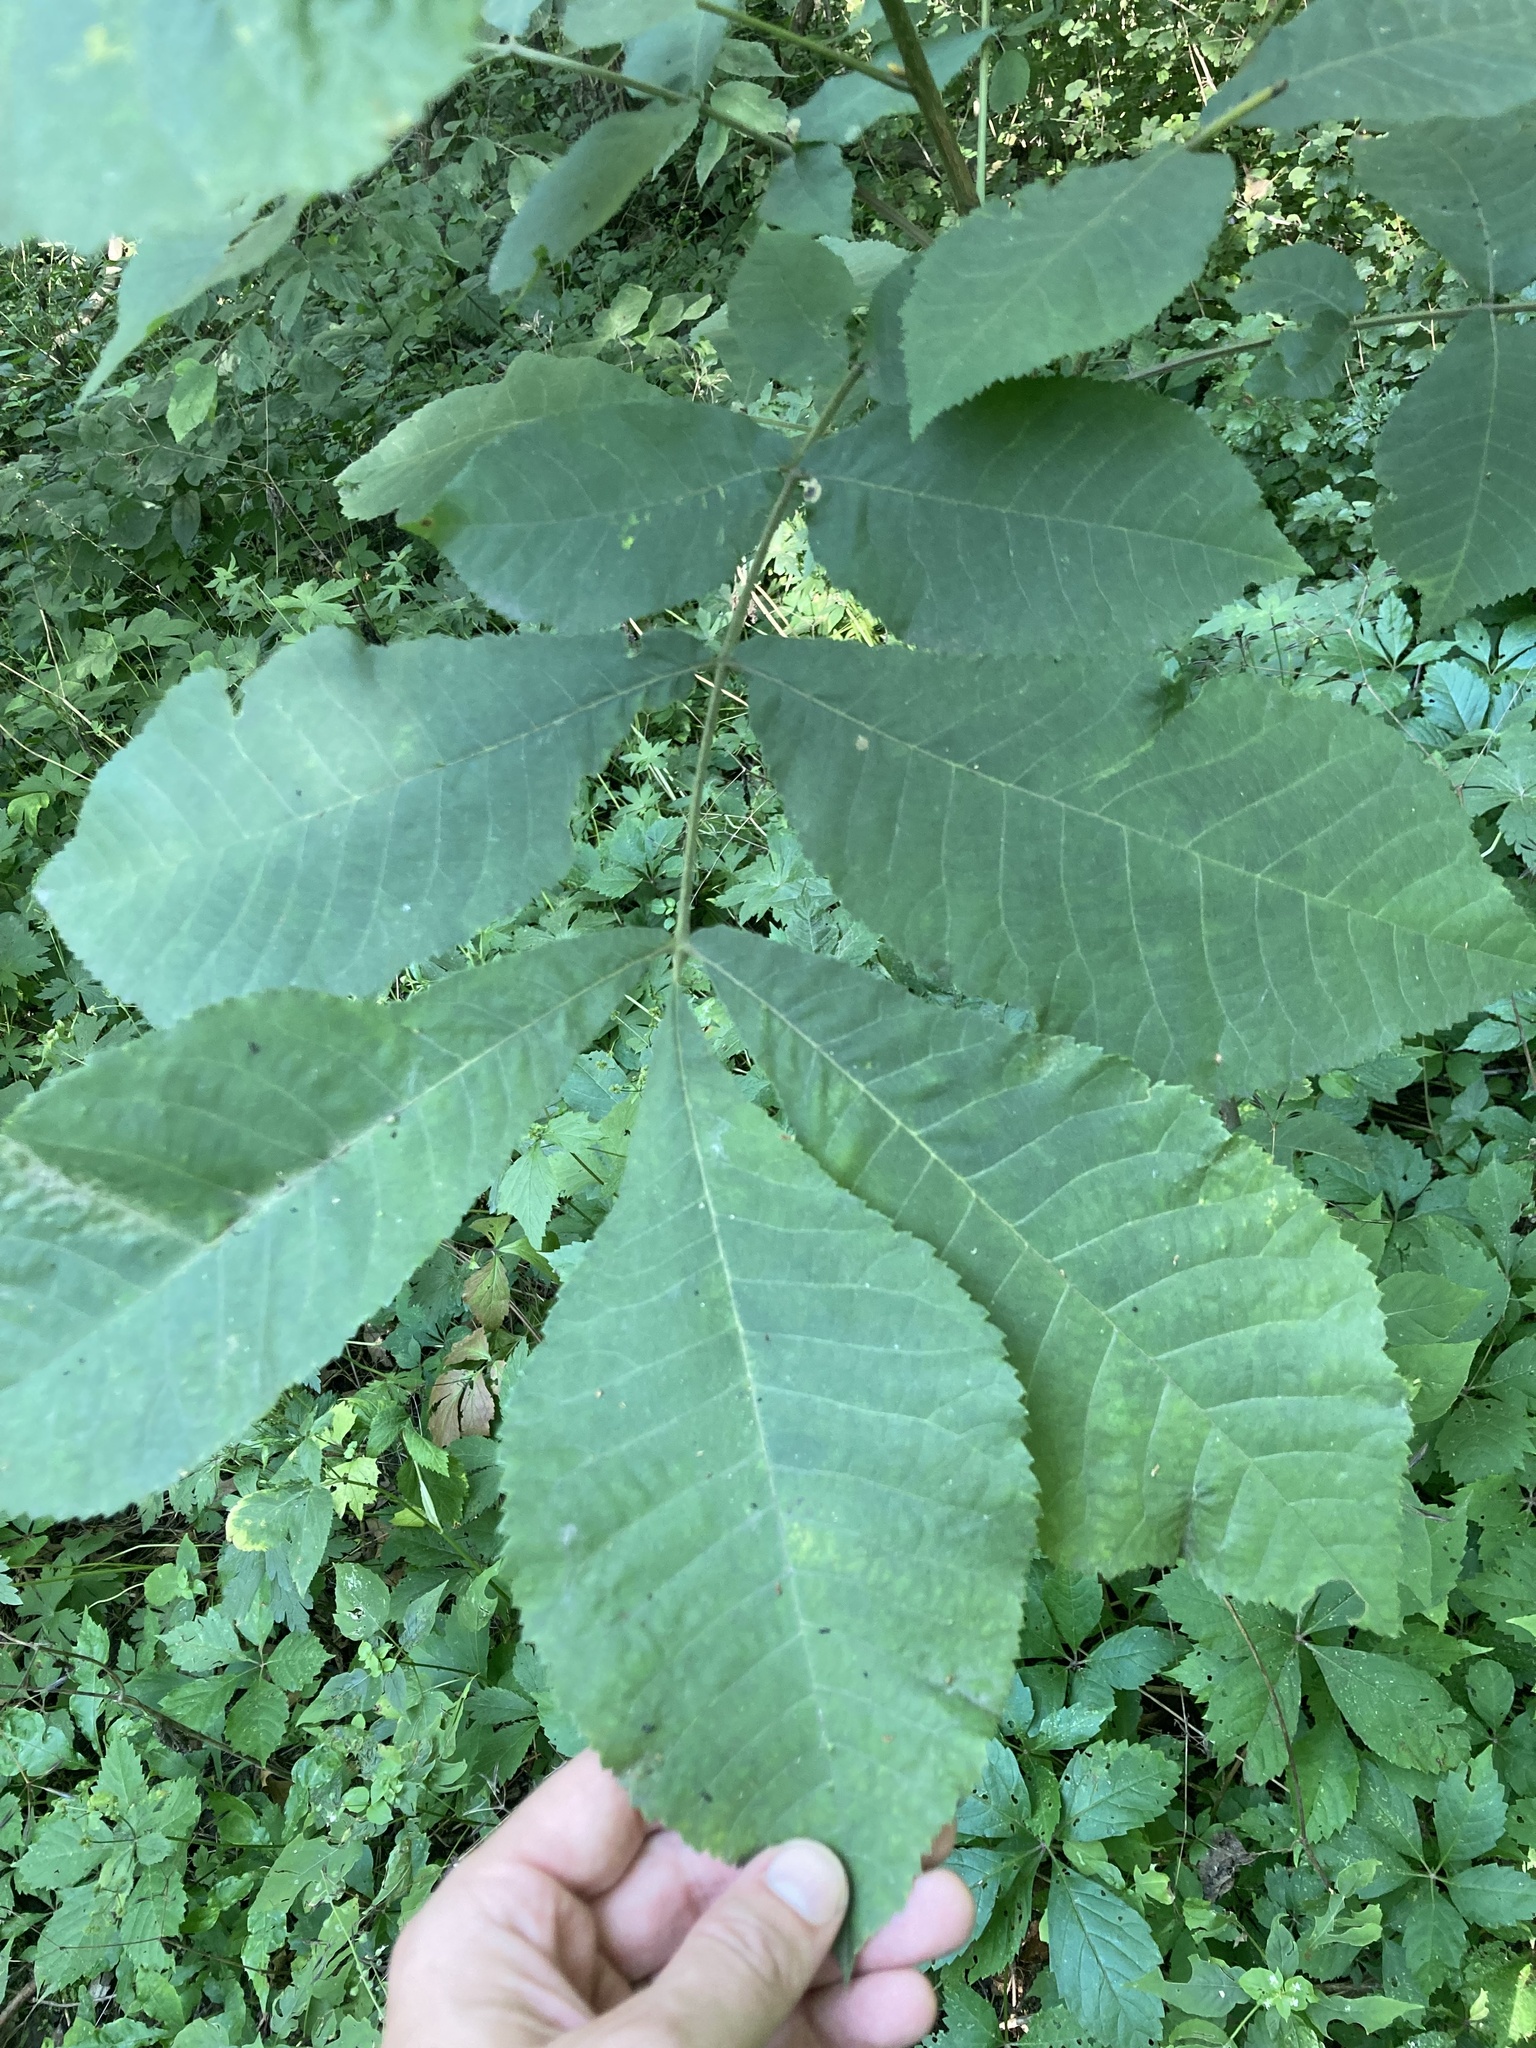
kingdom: Plantae
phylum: Tracheophyta
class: Magnoliopsida
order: Fagales
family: Juglandaceae
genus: Carya
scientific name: Carya cordiformis
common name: Bitternut hickory
